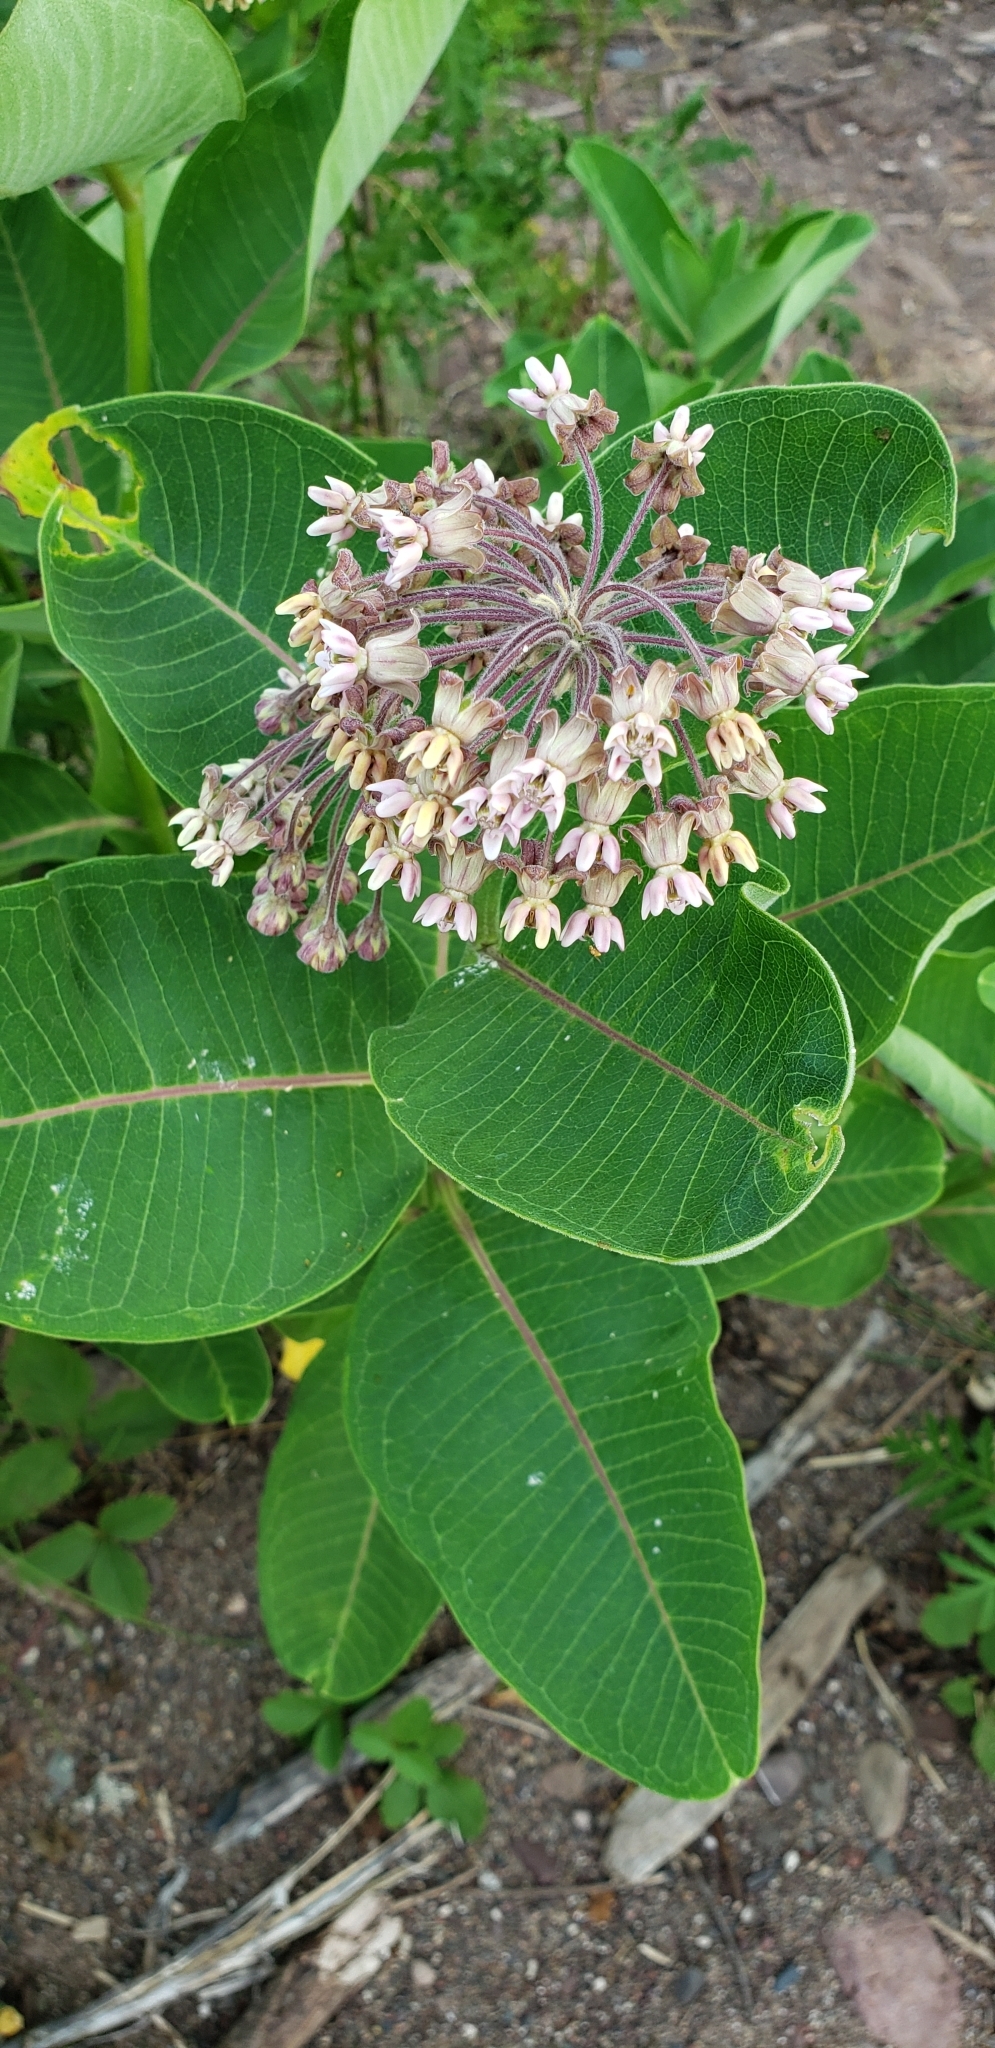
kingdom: Plantae
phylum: Tracheophyta
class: Magnoliopsida
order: Gentianales
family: Apocynaceae
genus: Asclepias
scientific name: Asclepias syriaca
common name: Common milkweed
